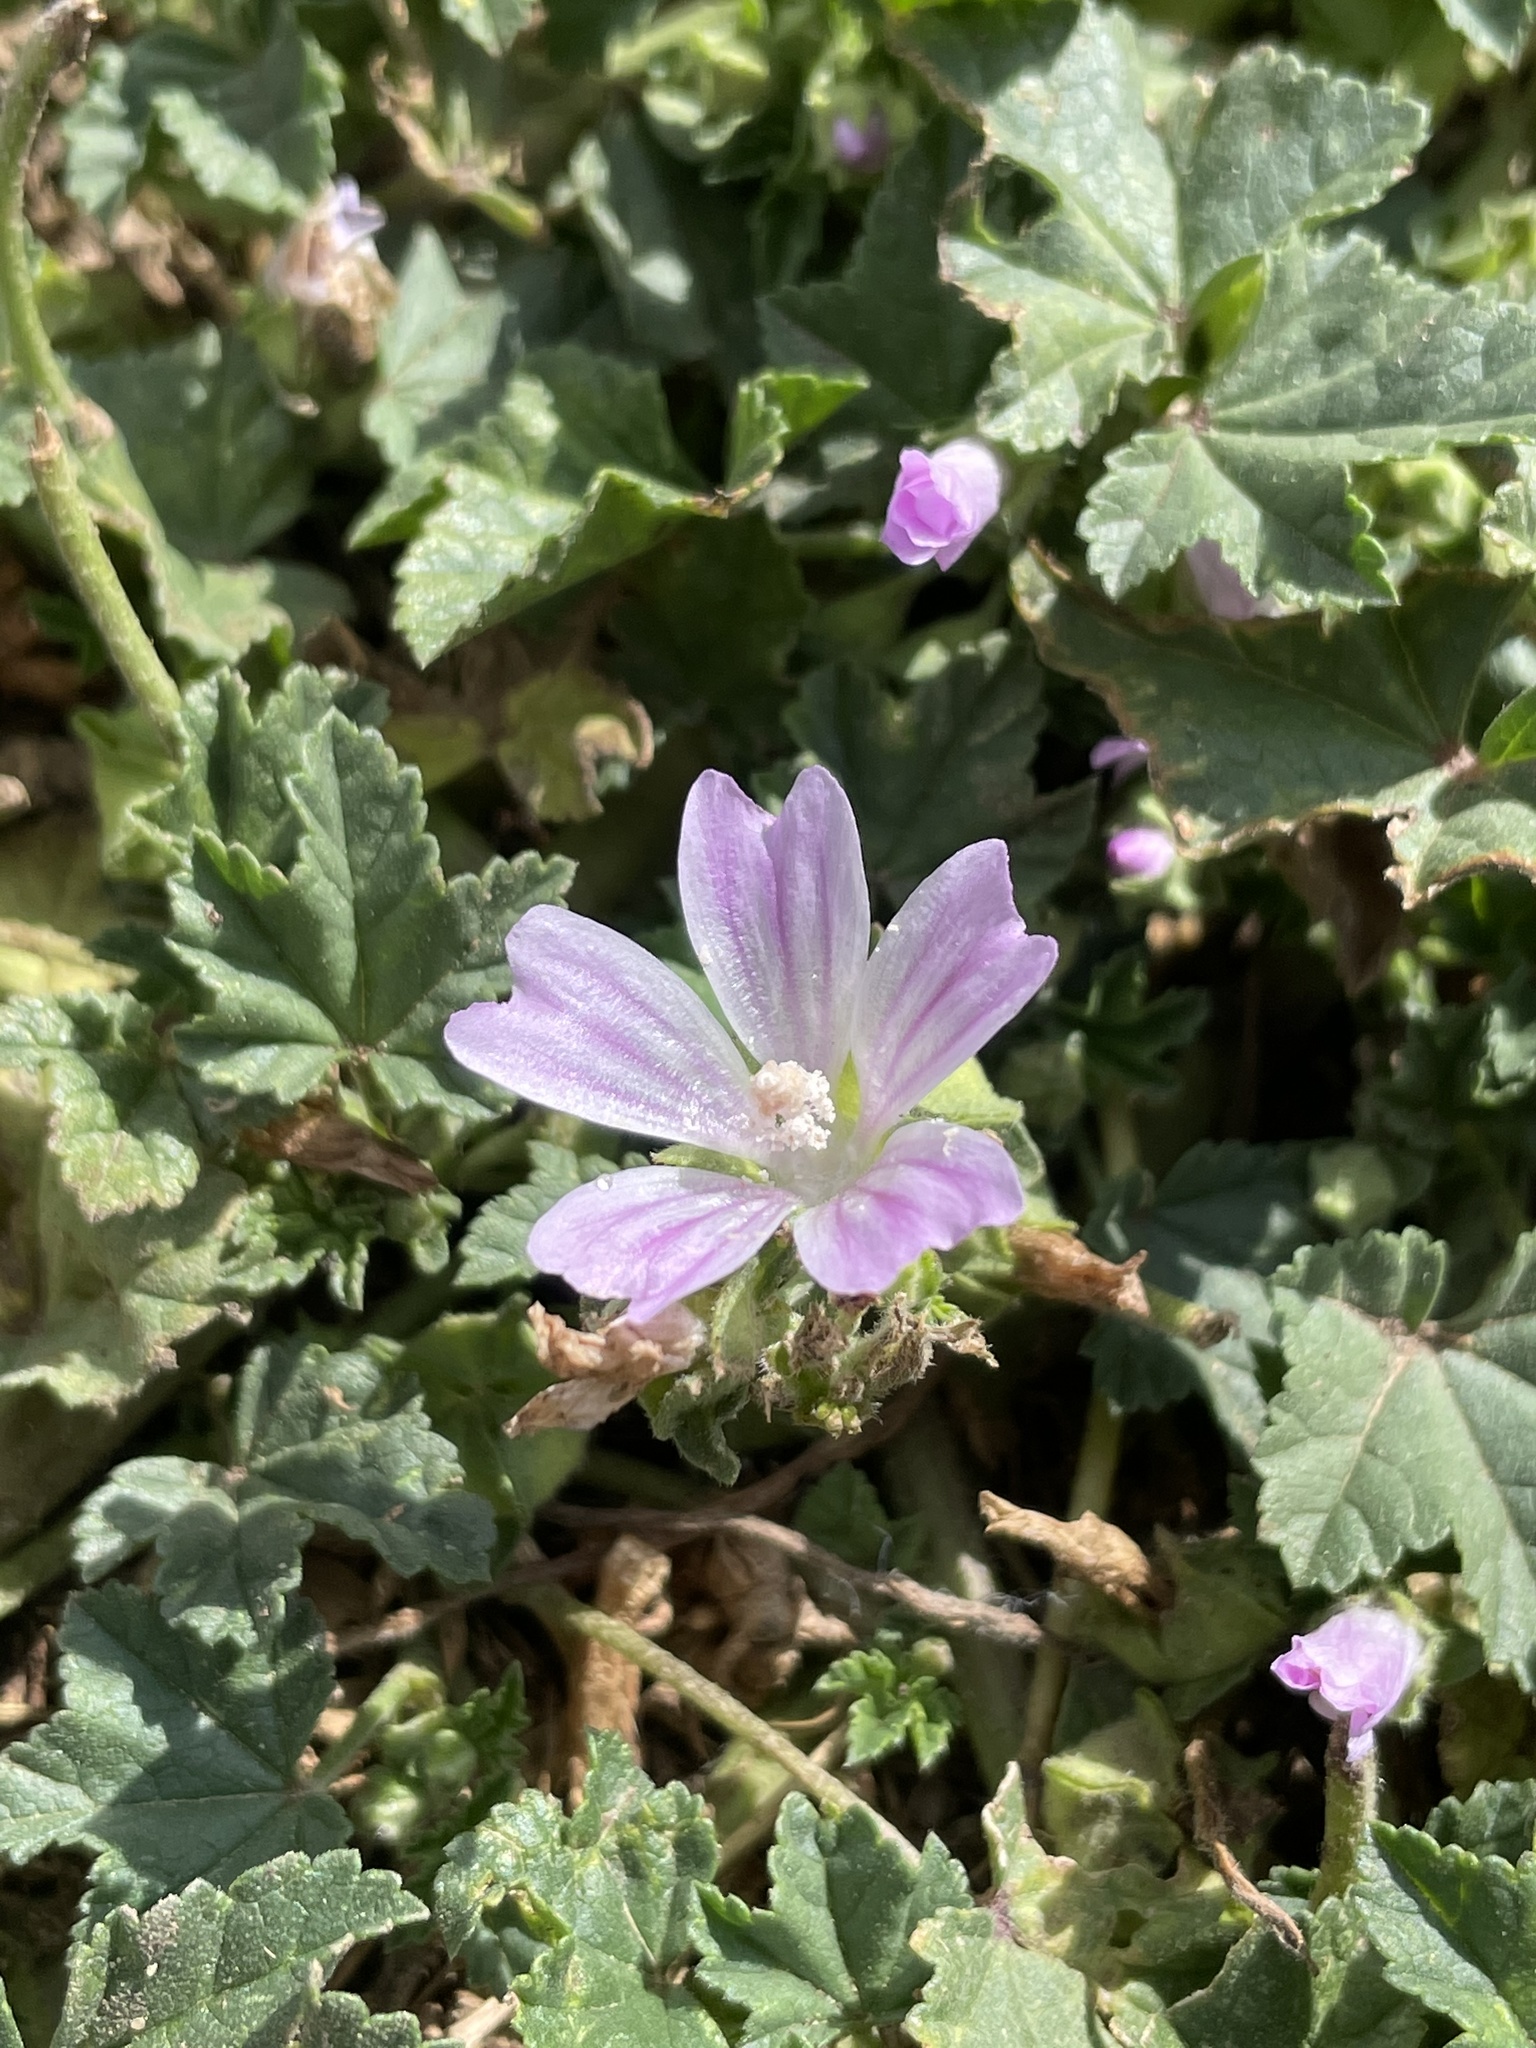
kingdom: Plantae
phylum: Tracheophyta
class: Magnoliopsida
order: Malvales
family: Malvaceae
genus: Malva
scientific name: Malva multiflora
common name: Cheeseweed
